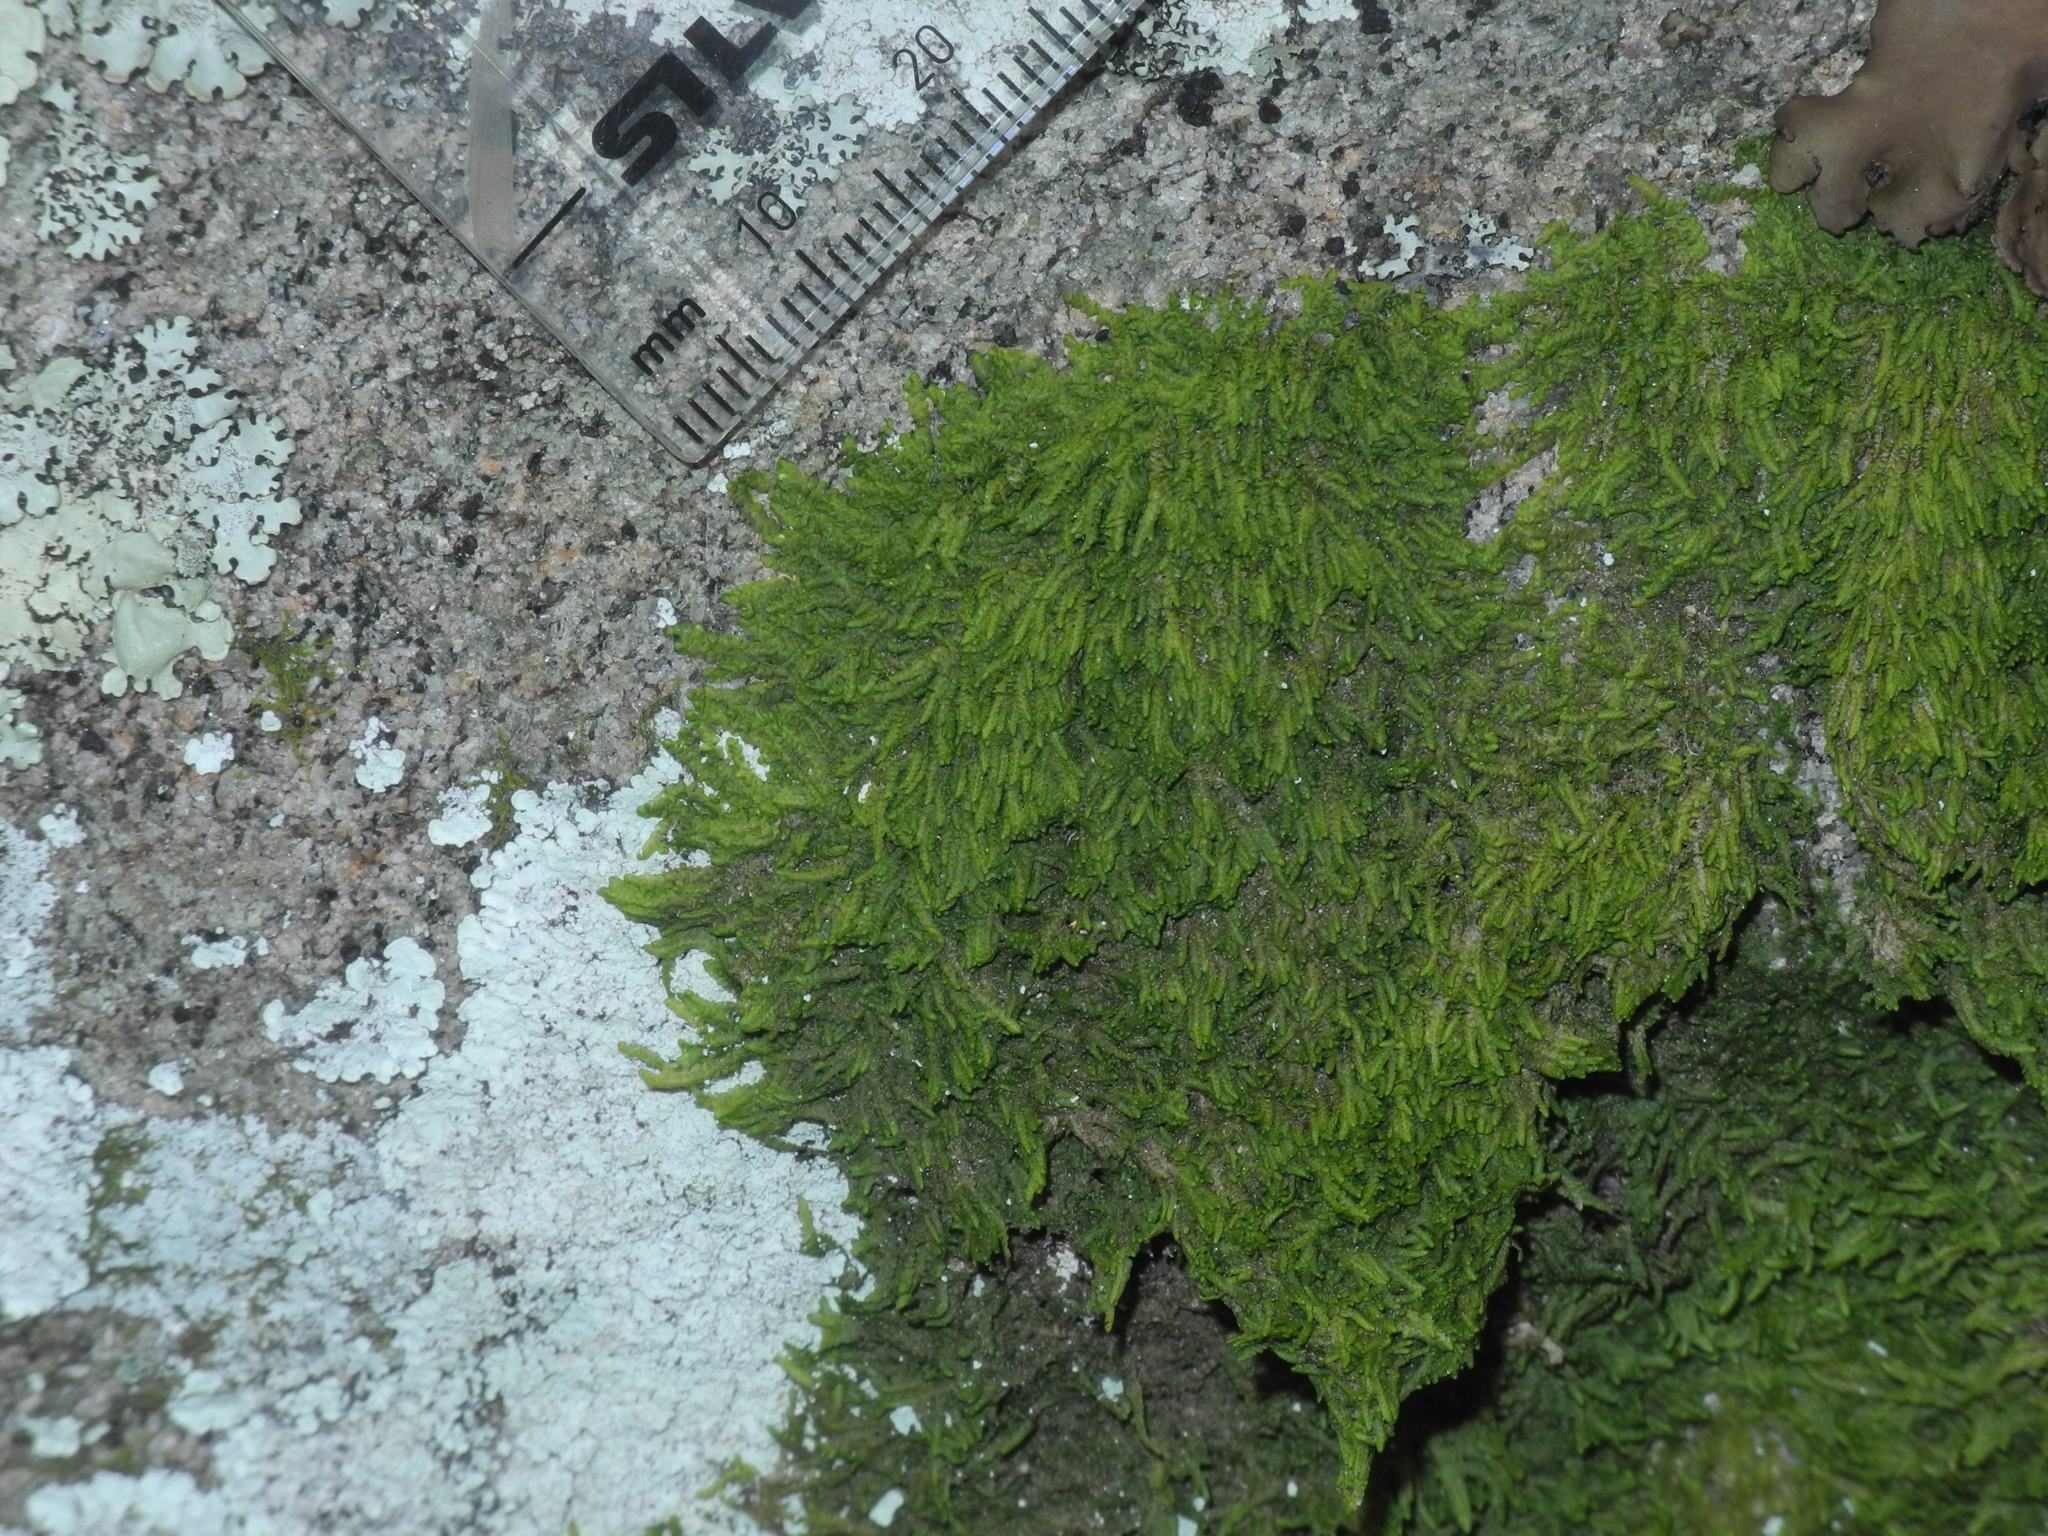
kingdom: Plantae
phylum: Marchantiophyta
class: Jungermanniopsida
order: Porellales
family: Lejeuneaceae
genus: Lejeunea
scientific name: Lejeunea cavifolia
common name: Least pouncewort
